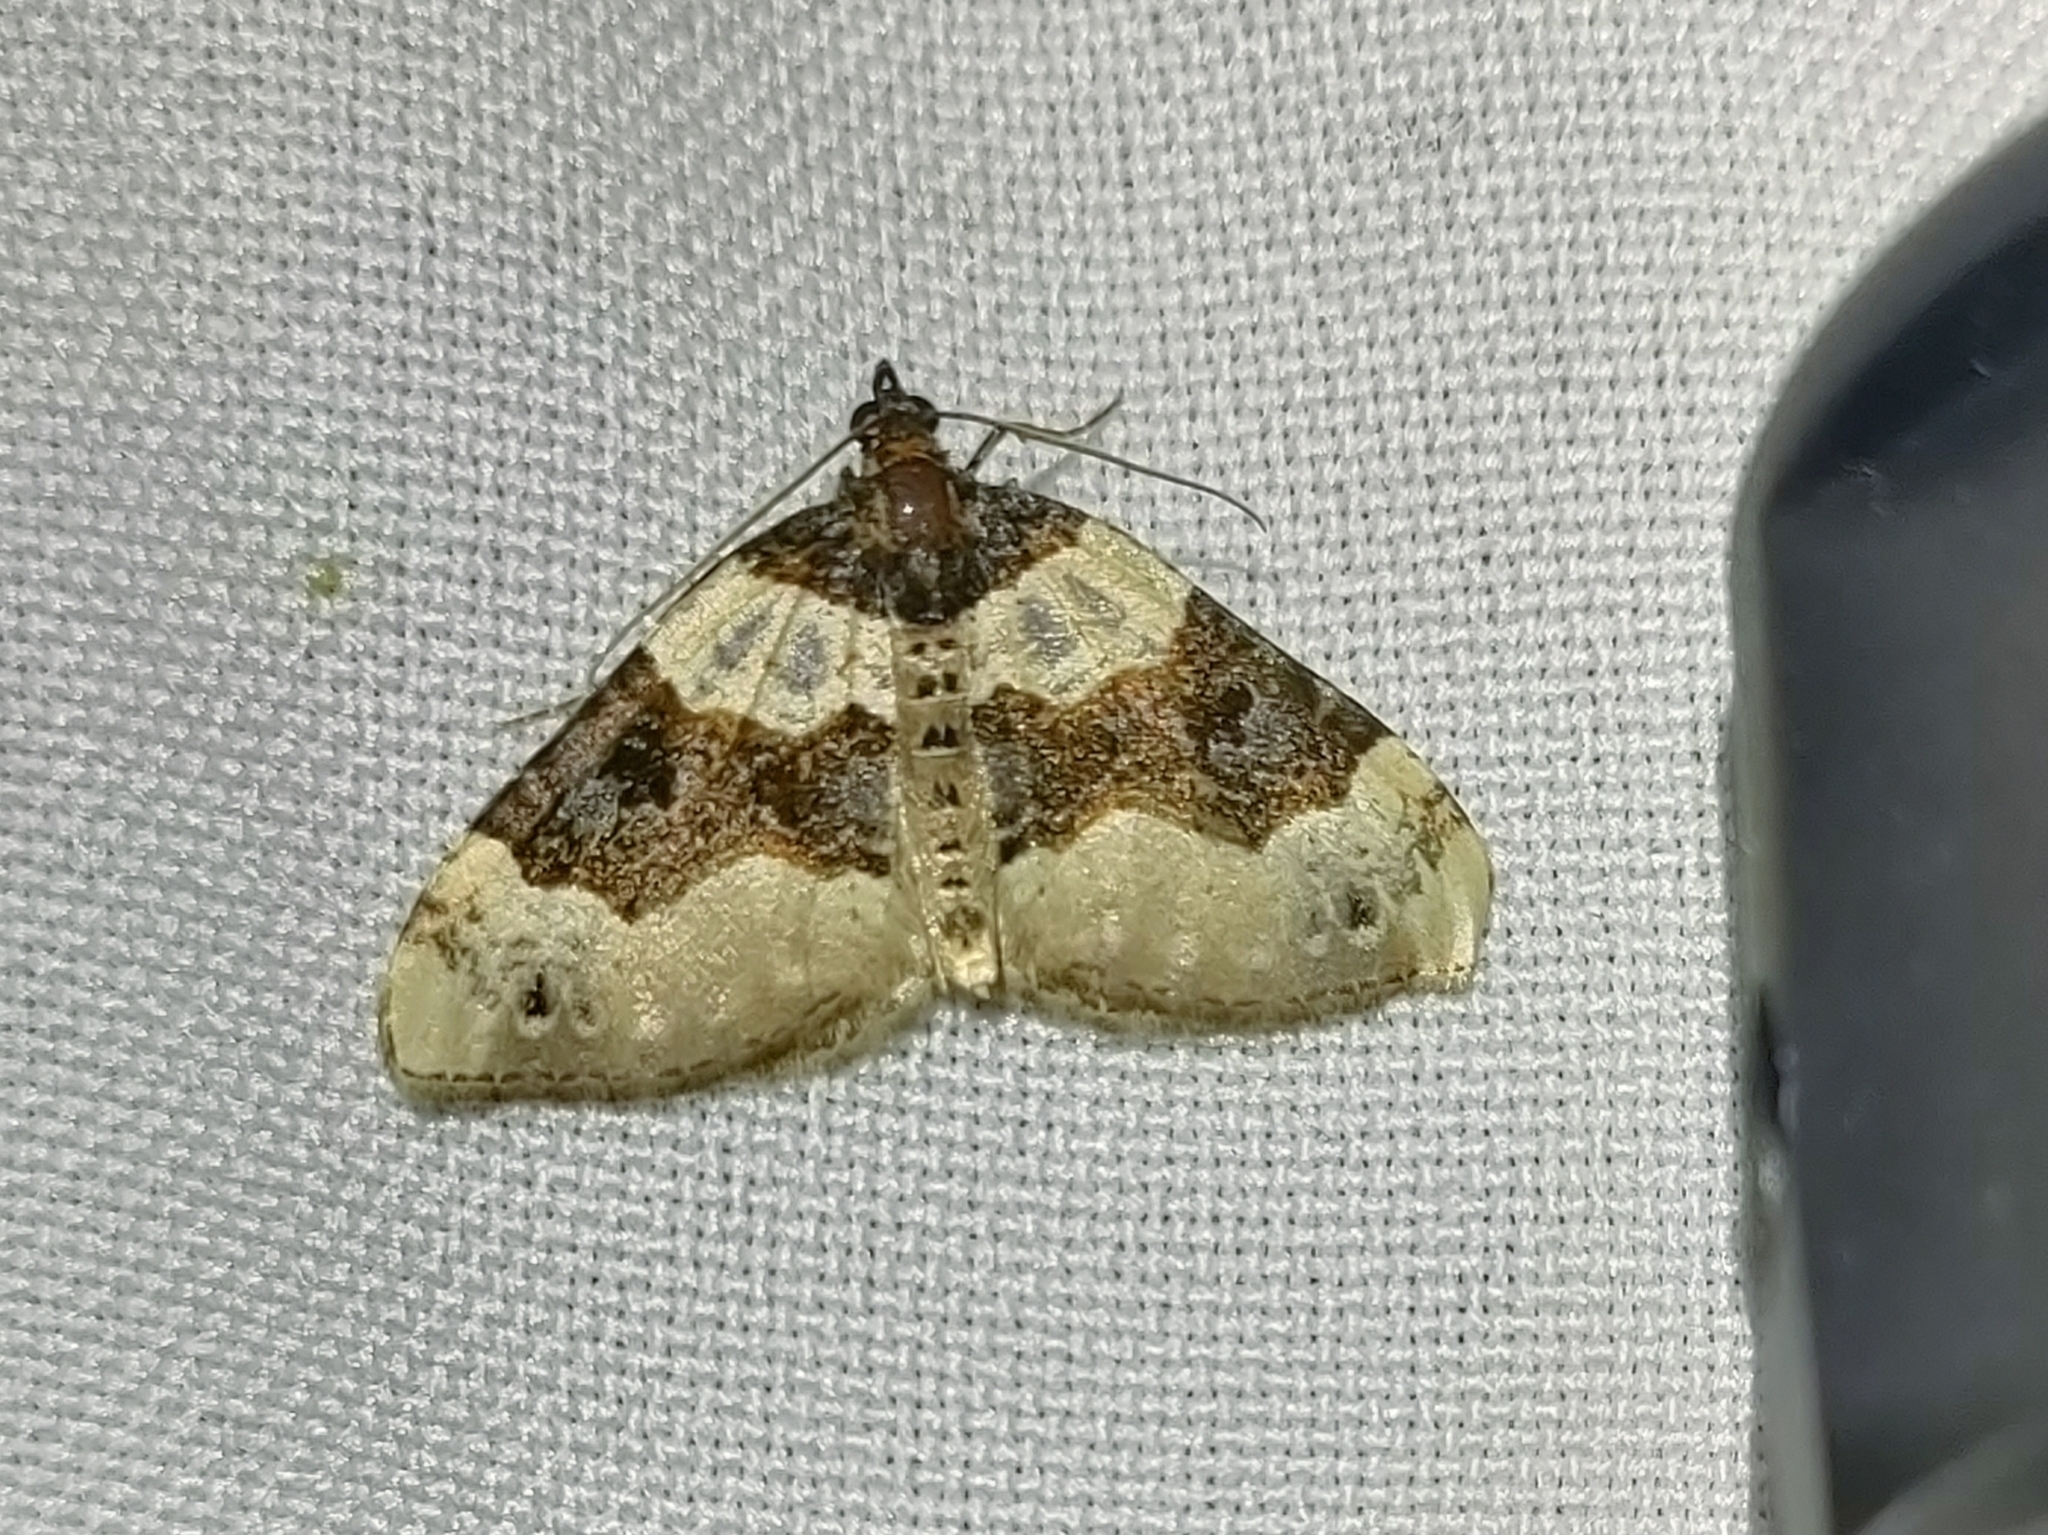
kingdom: Animalia
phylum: Arthropoda
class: Insecta
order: Lepidoptera
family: Geometridae
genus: Cosmorhoe
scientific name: Cosmorhoe ocellata
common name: Purple bar
